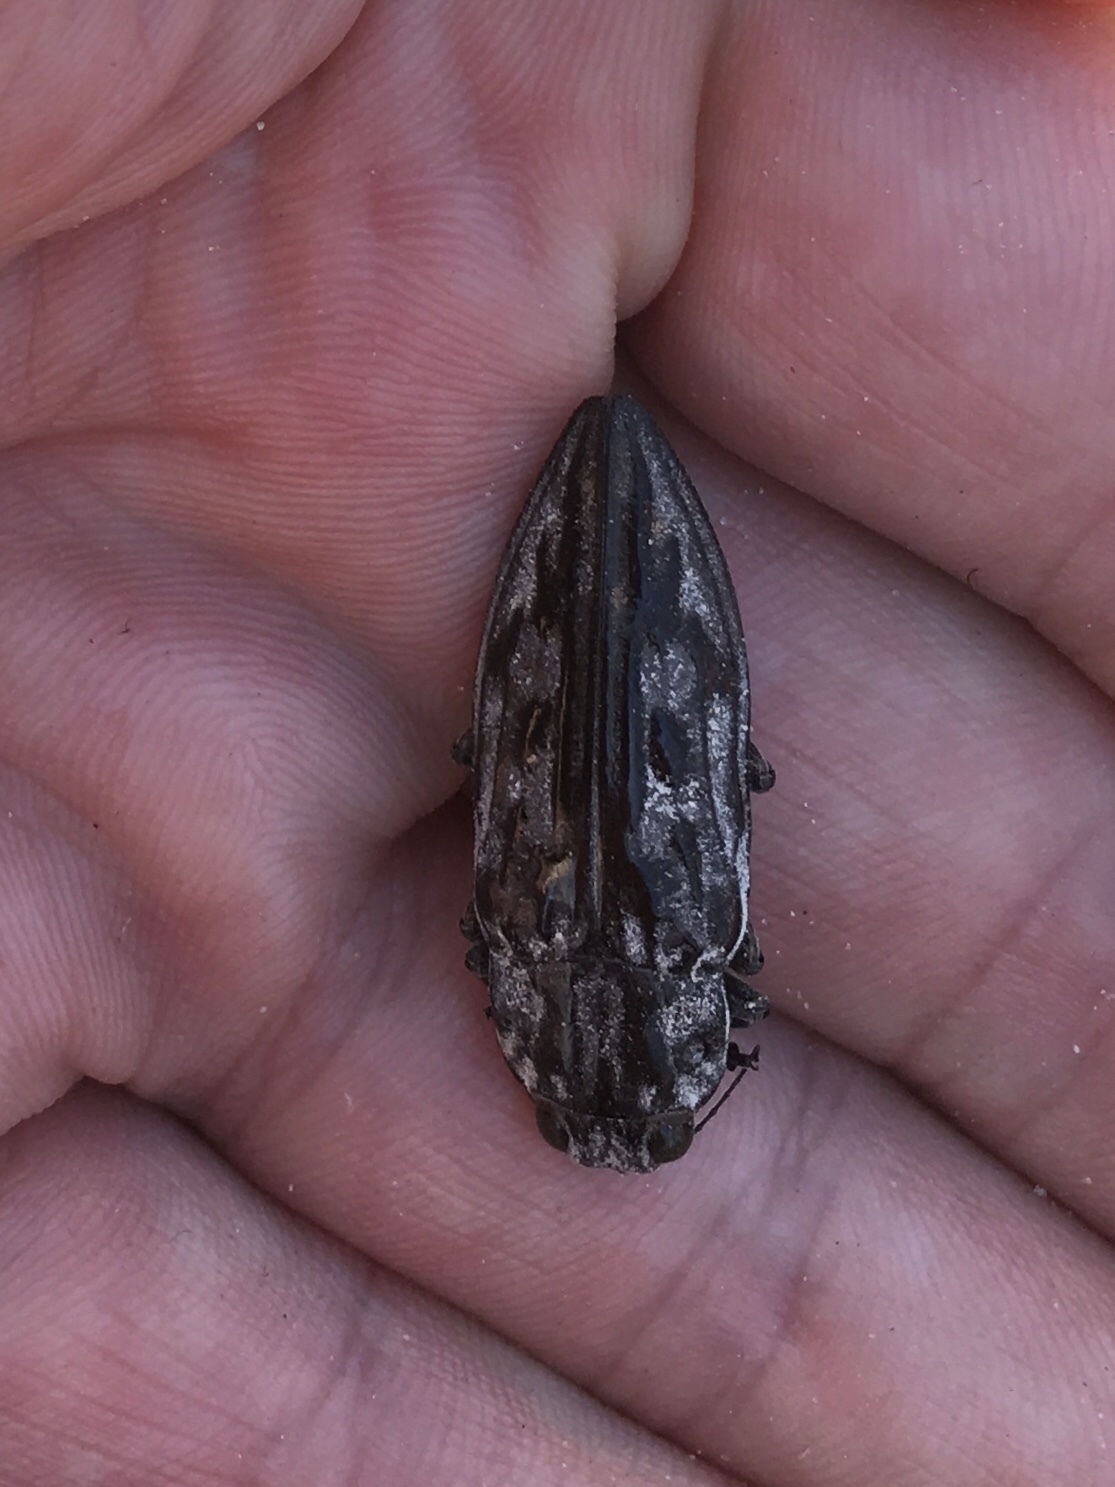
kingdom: Animalia
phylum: Arthropoda
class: Insecta
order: Coleoptera
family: Buprestidae
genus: Chalcophora
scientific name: Chalcophora virginiensis
